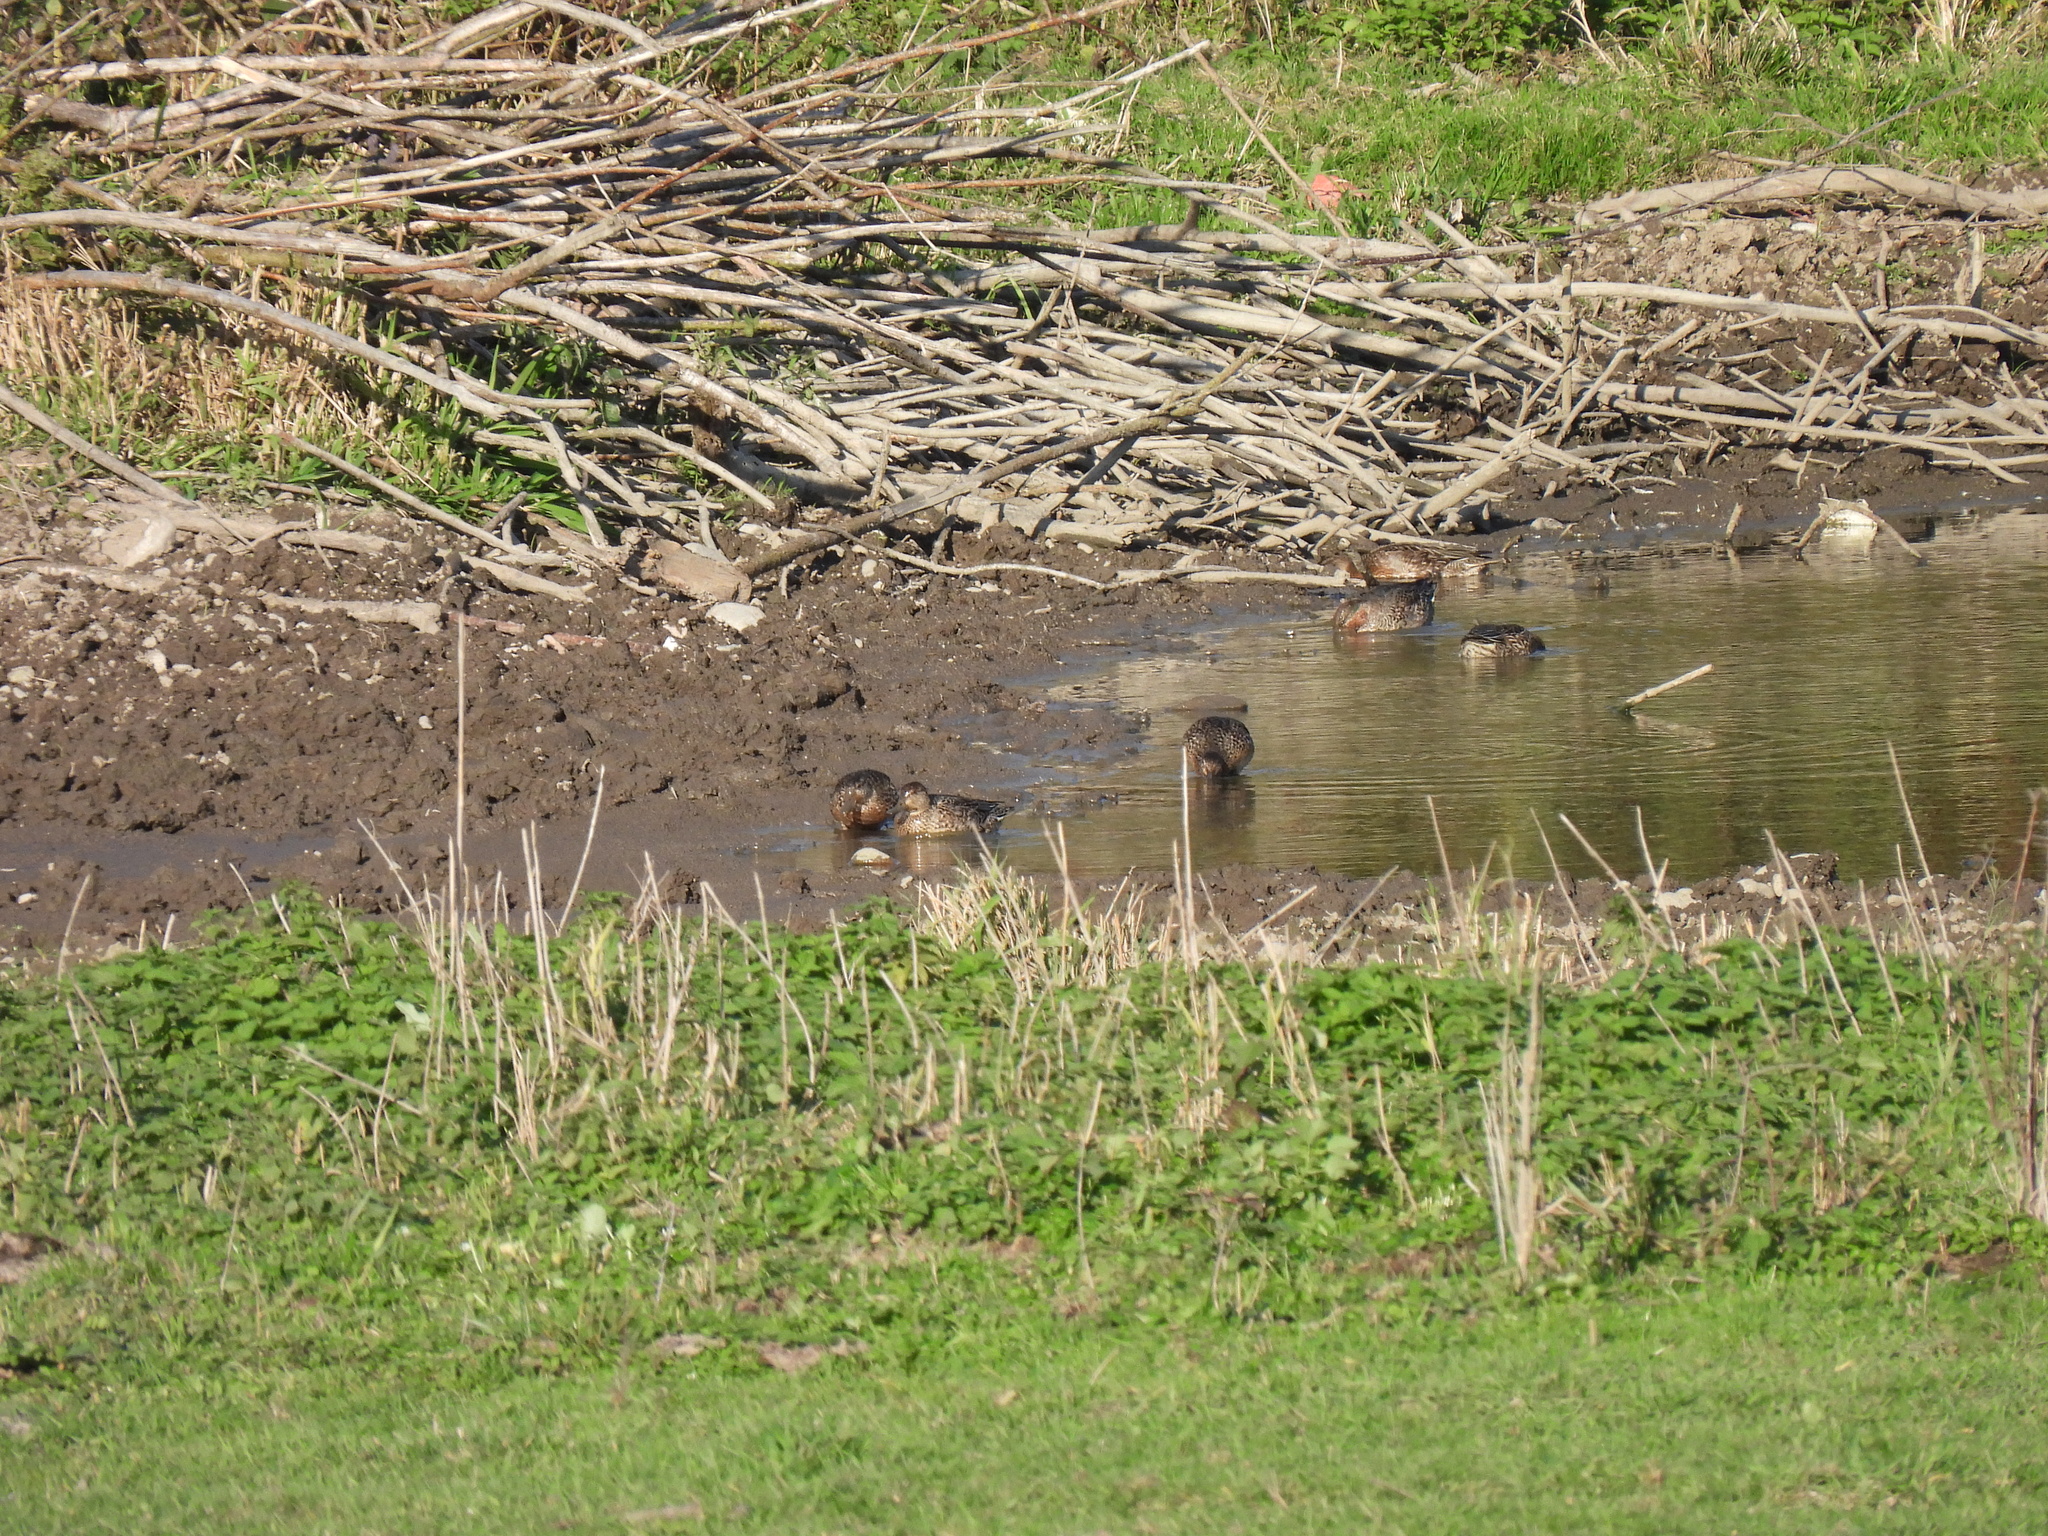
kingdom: Animalia
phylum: Chordata
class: Aves
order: Anseriformes
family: Anatidae
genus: Anas
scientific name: Anas crecca
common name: Eurasian teal
